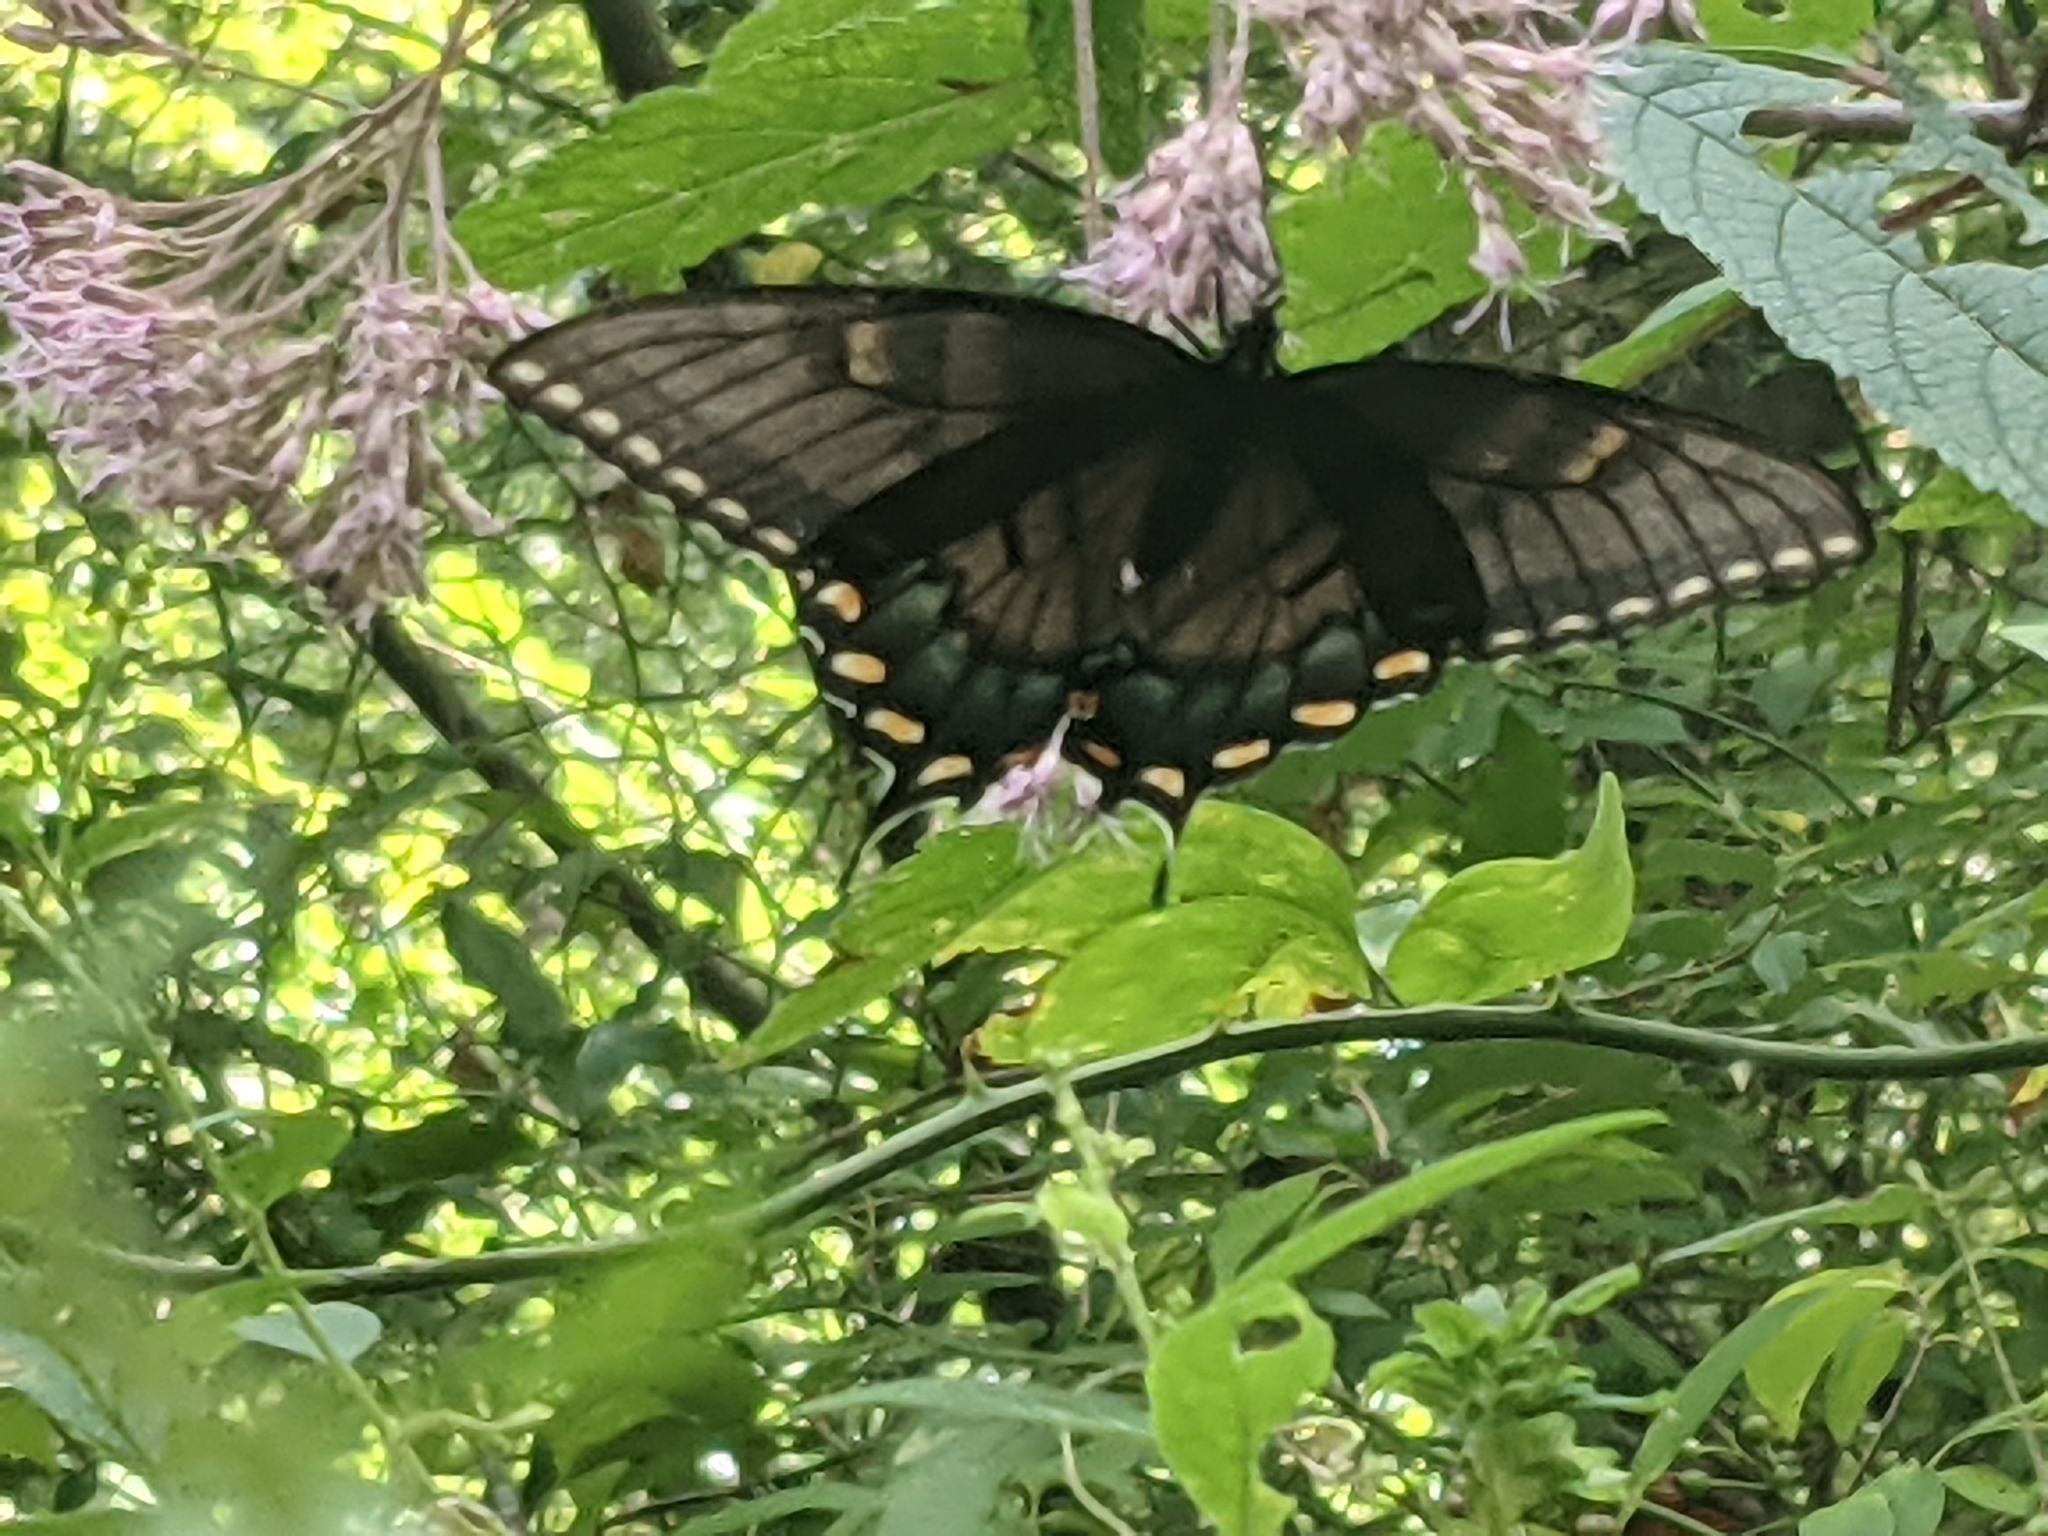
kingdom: Animalia
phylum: Arthropoda
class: Insecta
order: Lepidoptera
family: Papilionidae
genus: Papilio
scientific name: Papilio glaucus
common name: Tiger swallowtail
